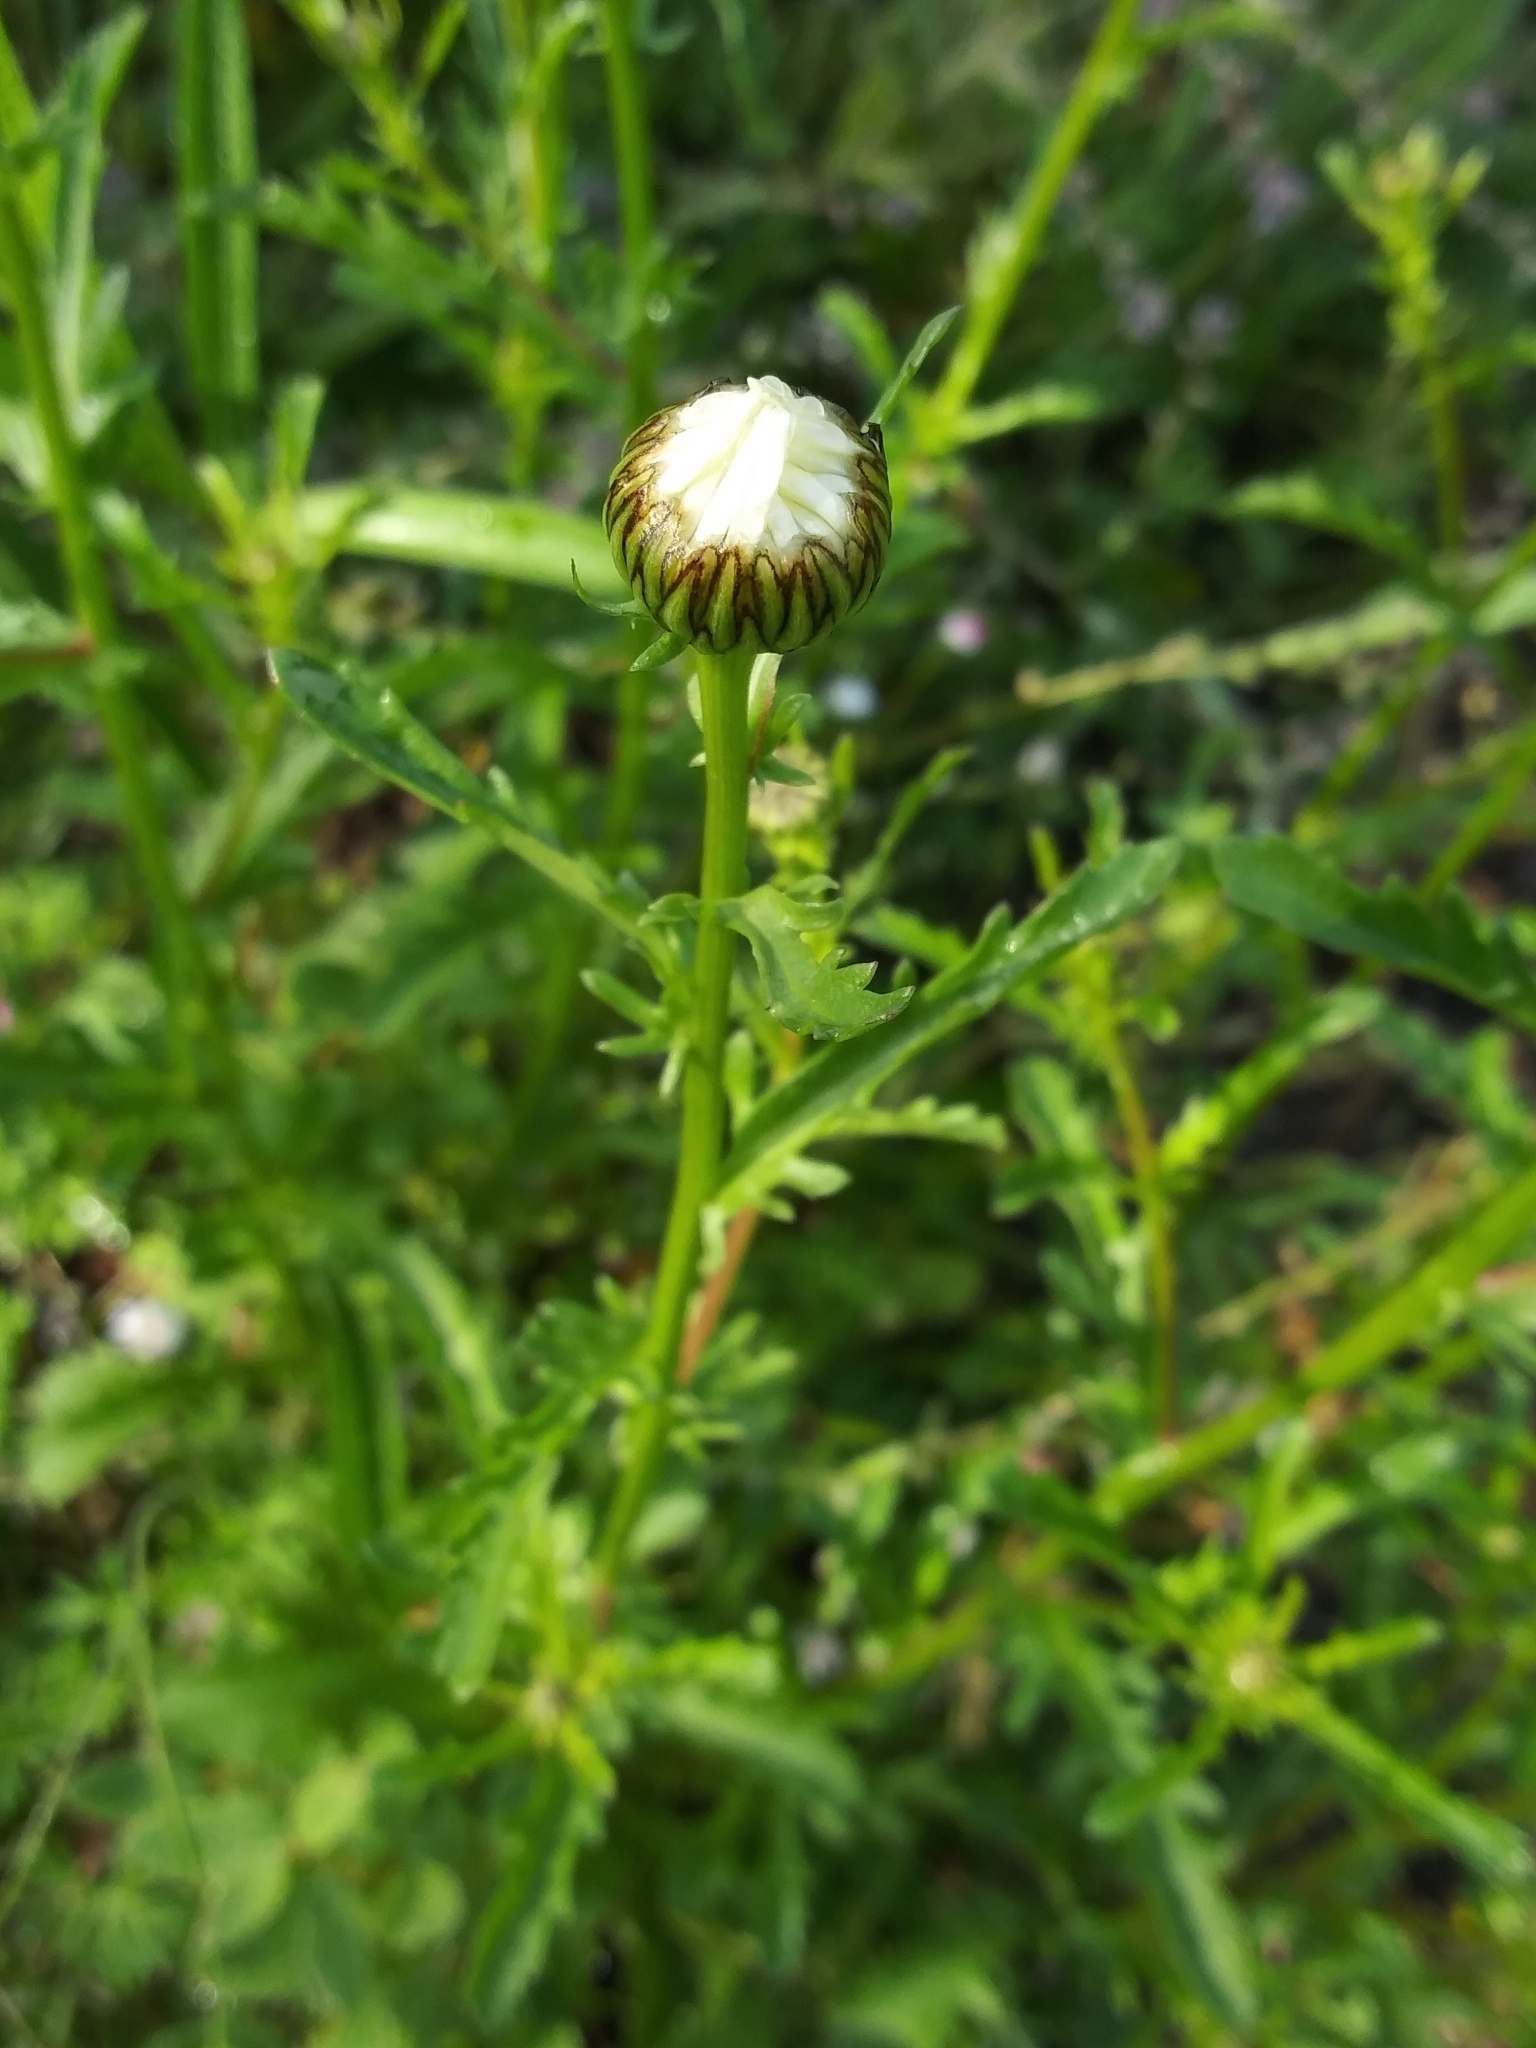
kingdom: Plantae
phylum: Tracheophyta
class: Magnoliopsida
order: Asterales
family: Asteraceae
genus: Leucanthemum
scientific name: Leucanthemum vulgare
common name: Oxeye daisy
